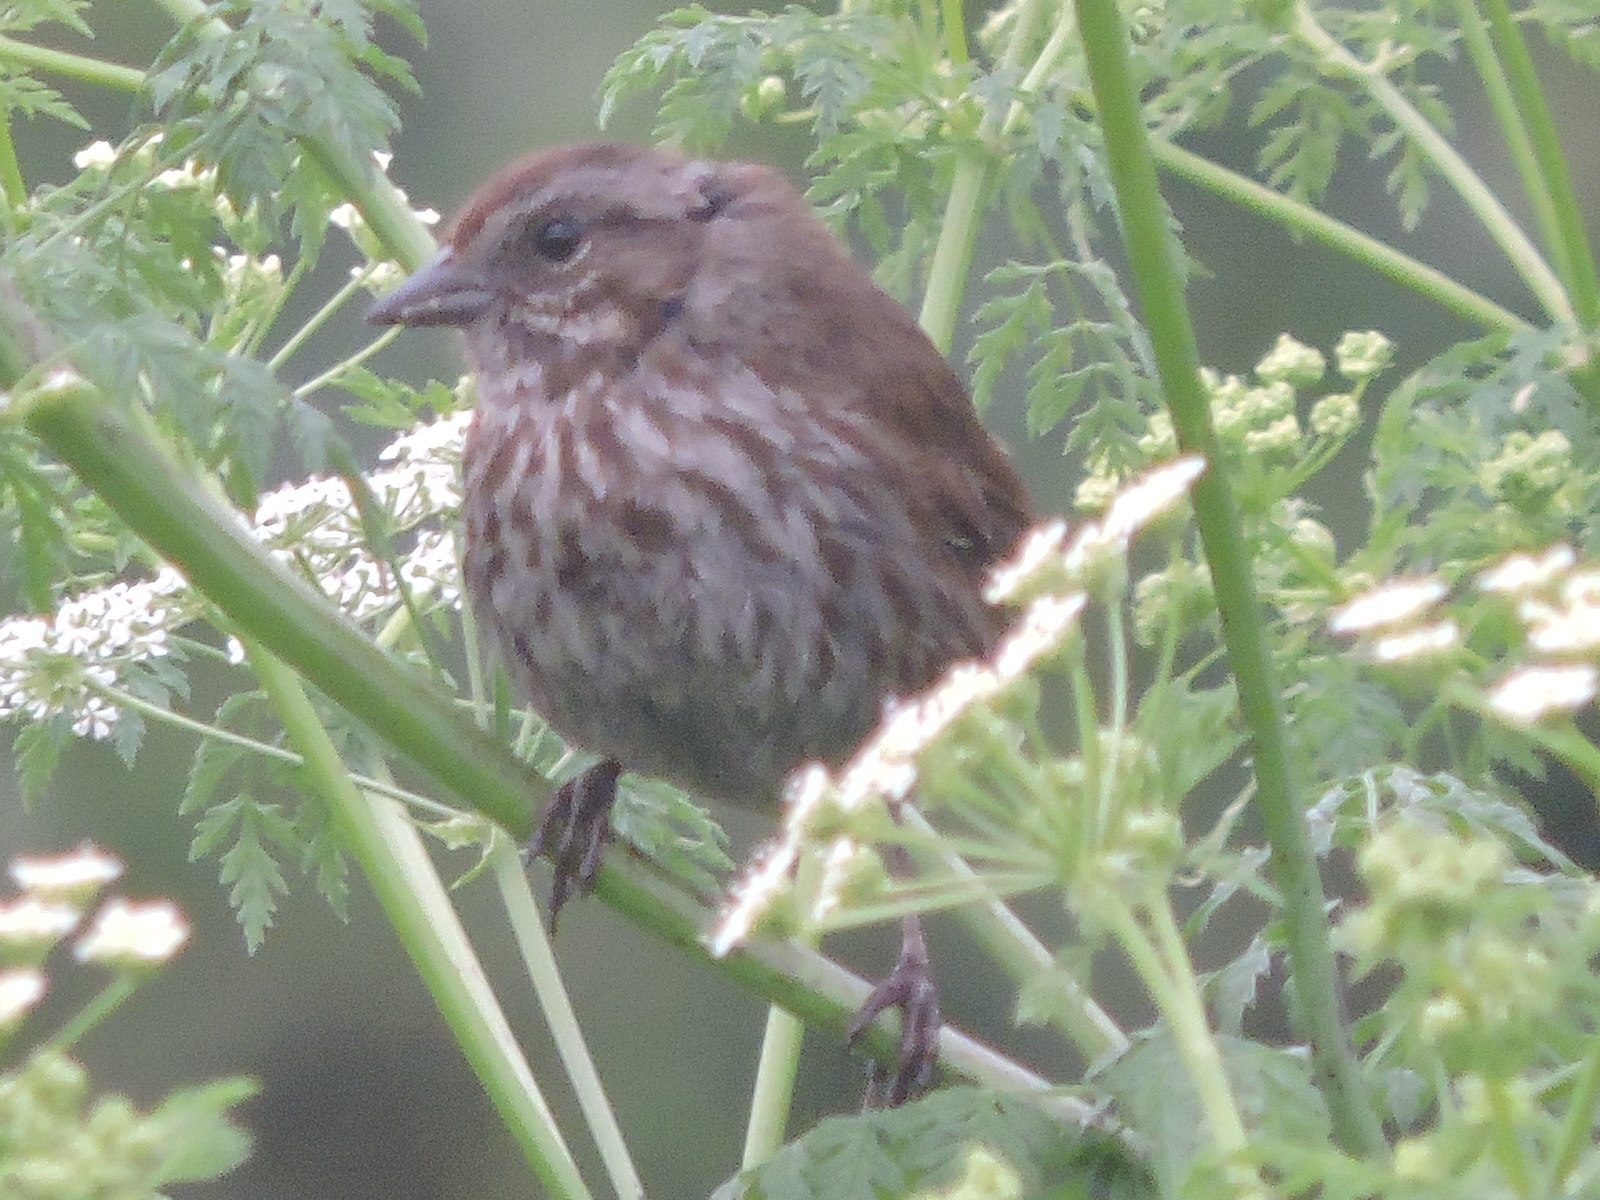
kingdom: Animalia
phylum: Chordata
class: Aves
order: Passeriformes
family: Passerellidae
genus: Melospiza
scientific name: Melospiza melodia
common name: Song sparrow
